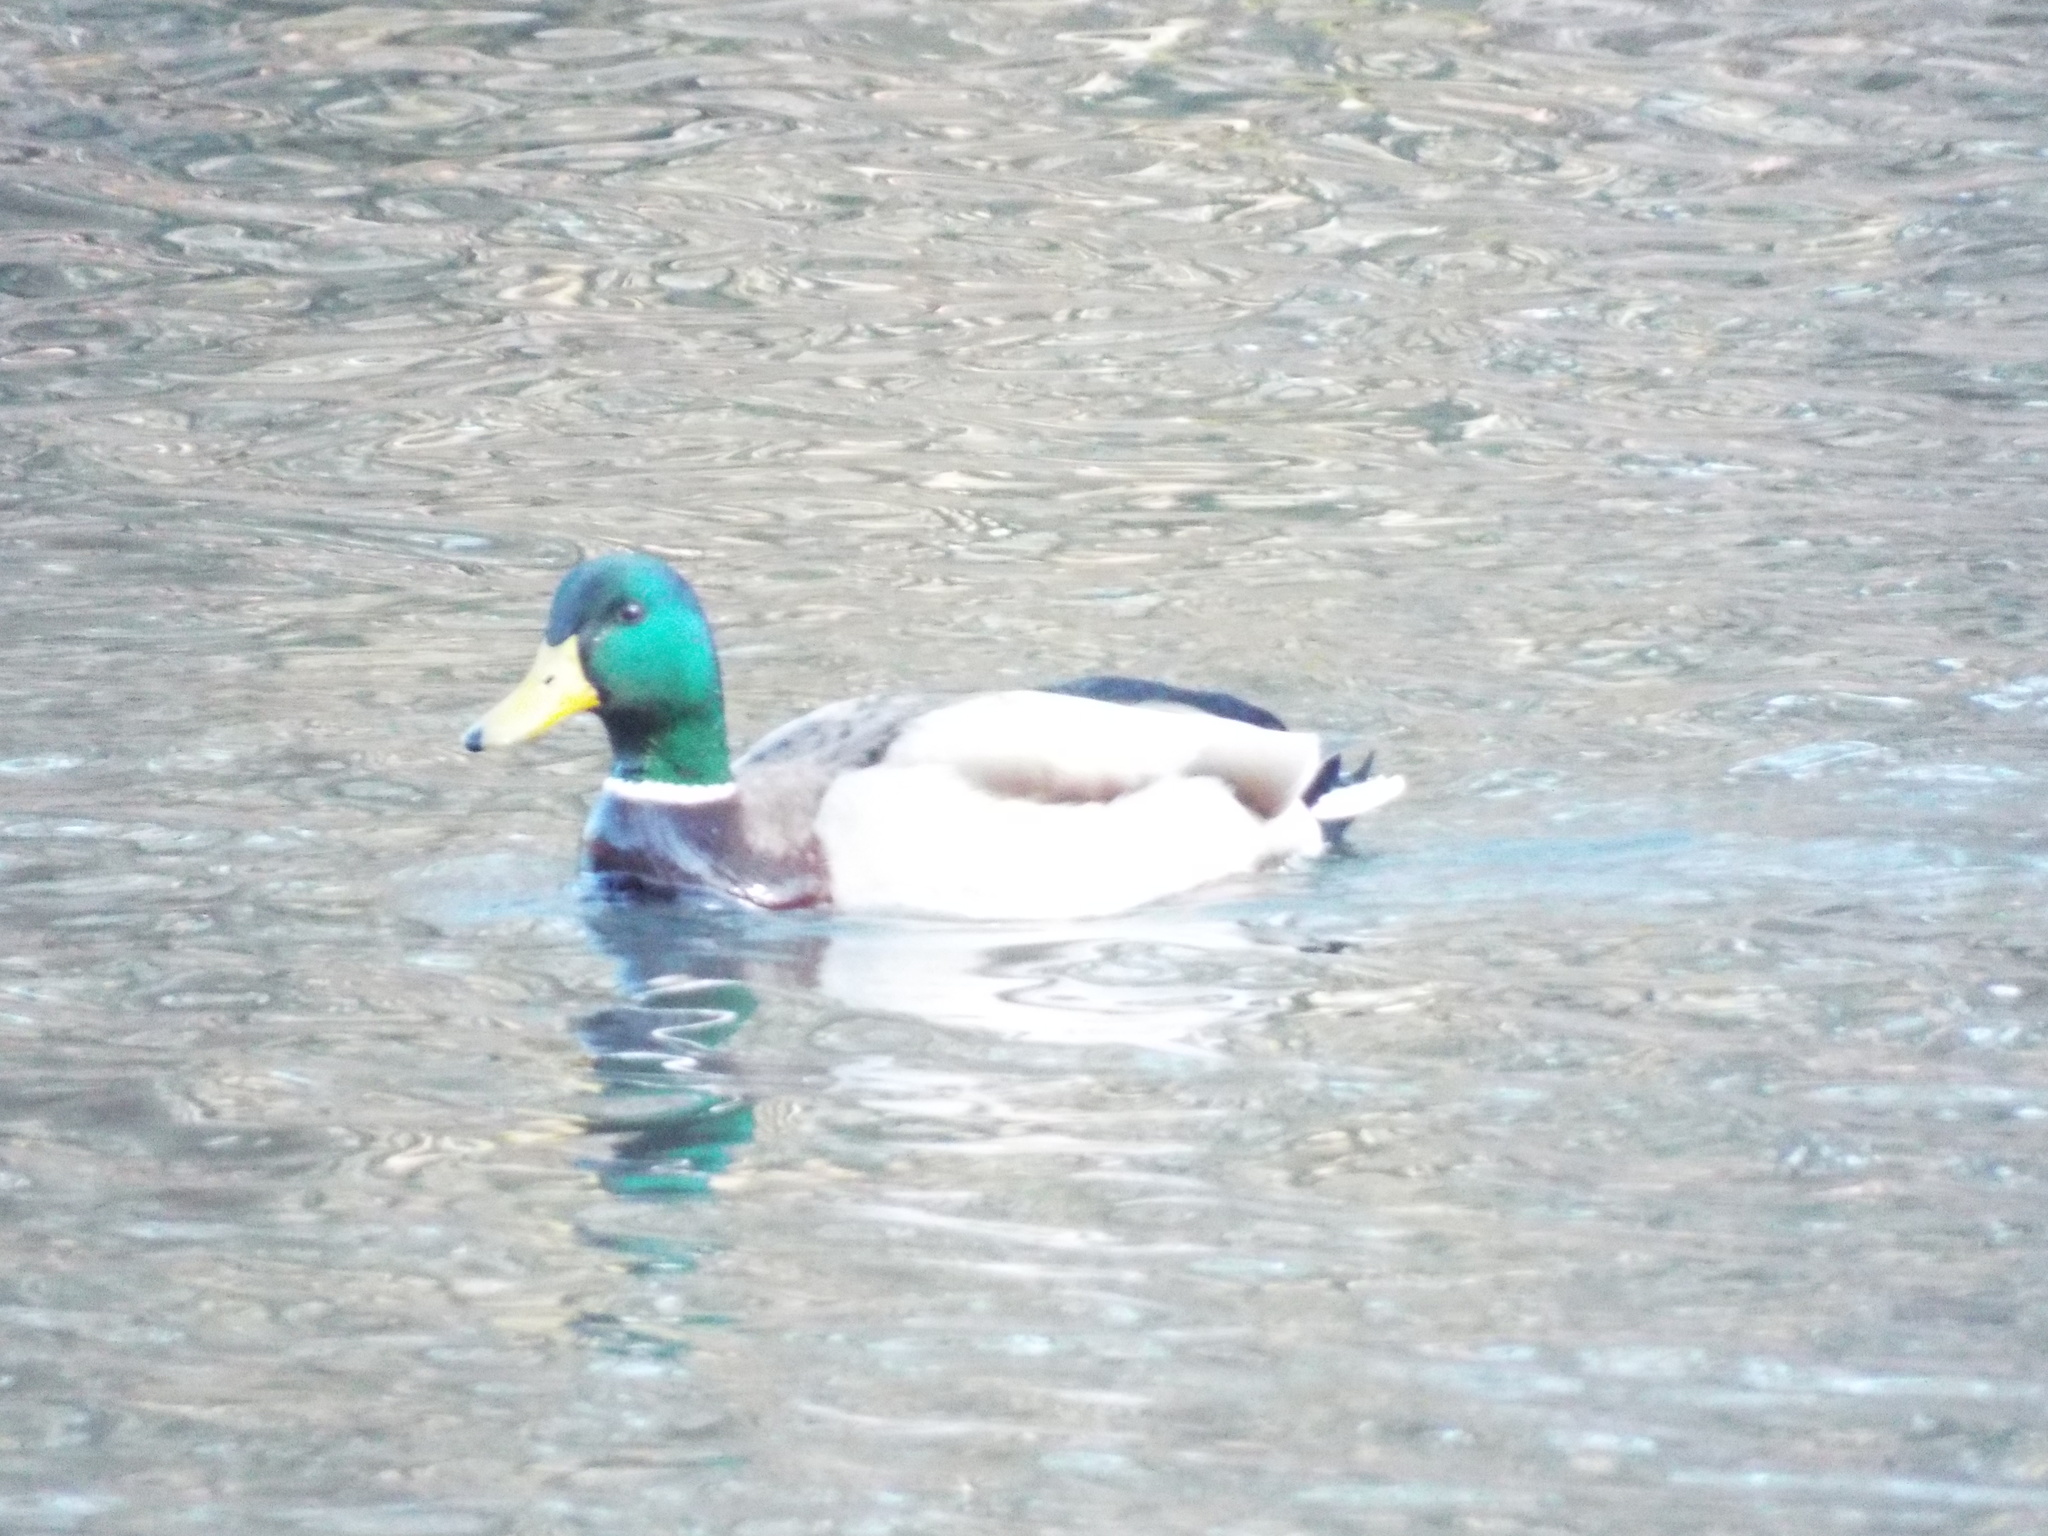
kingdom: Animalia
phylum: Chordata
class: Aves
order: Anseriformes
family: Anatidae
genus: Anas
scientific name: Anas platyrhynchos
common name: Mallard
